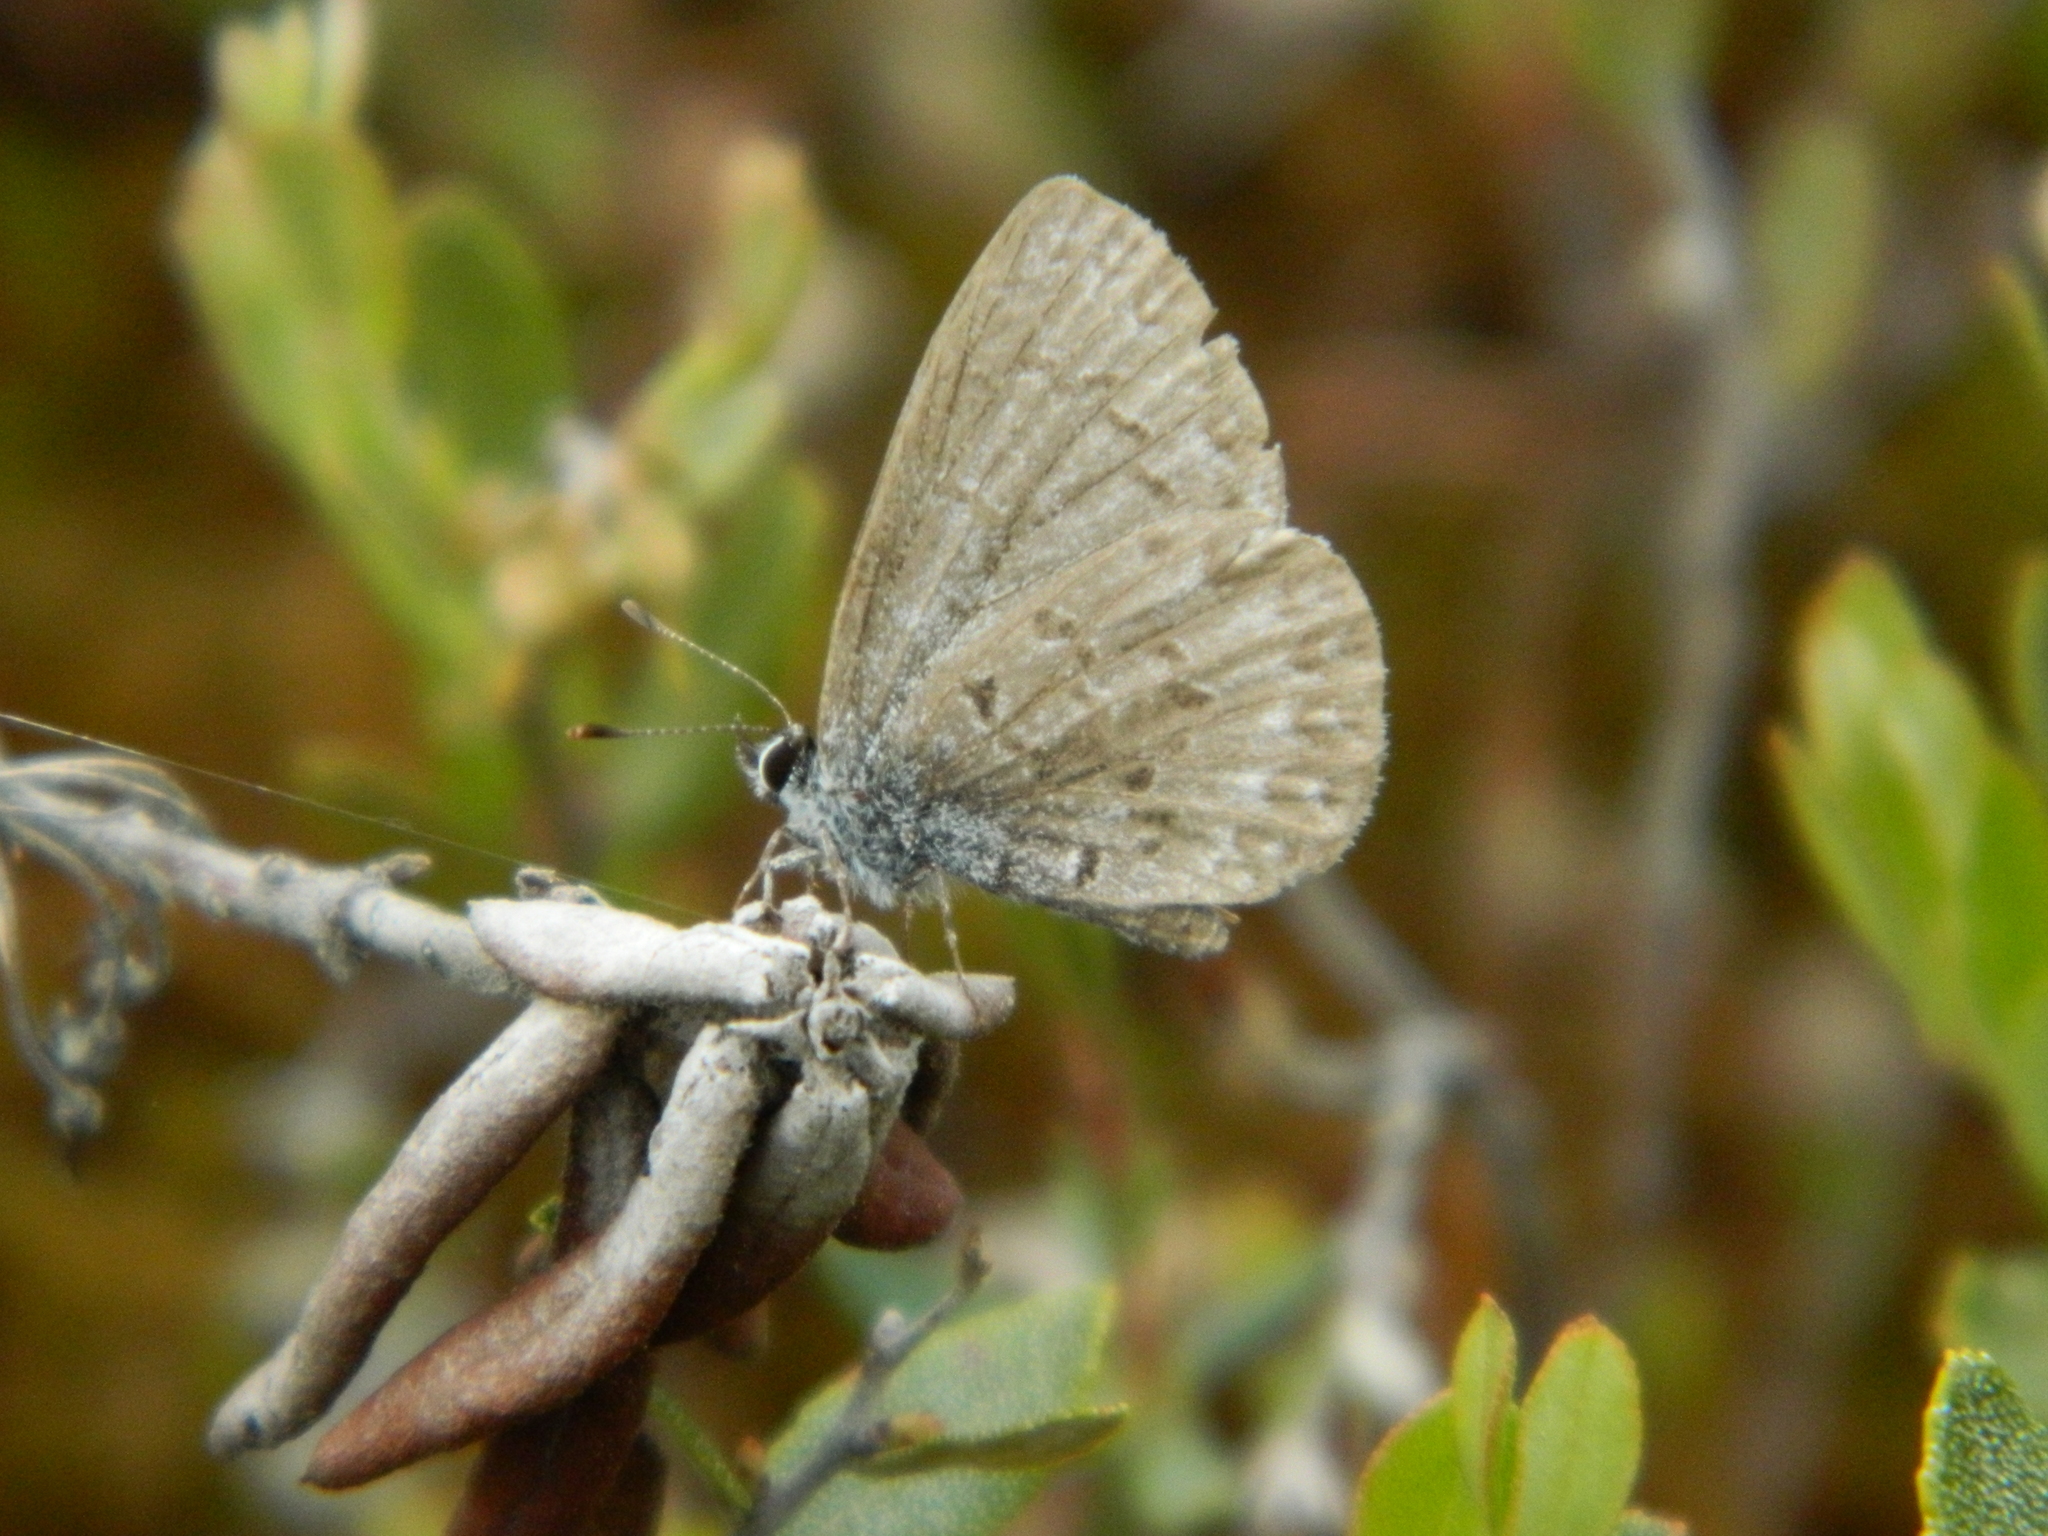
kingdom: Animalia
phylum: Arthropoda
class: Insecta
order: Lepidoptera
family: Lycaenidae
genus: Celastrina
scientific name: Celastrina lucia
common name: Lucia azure
